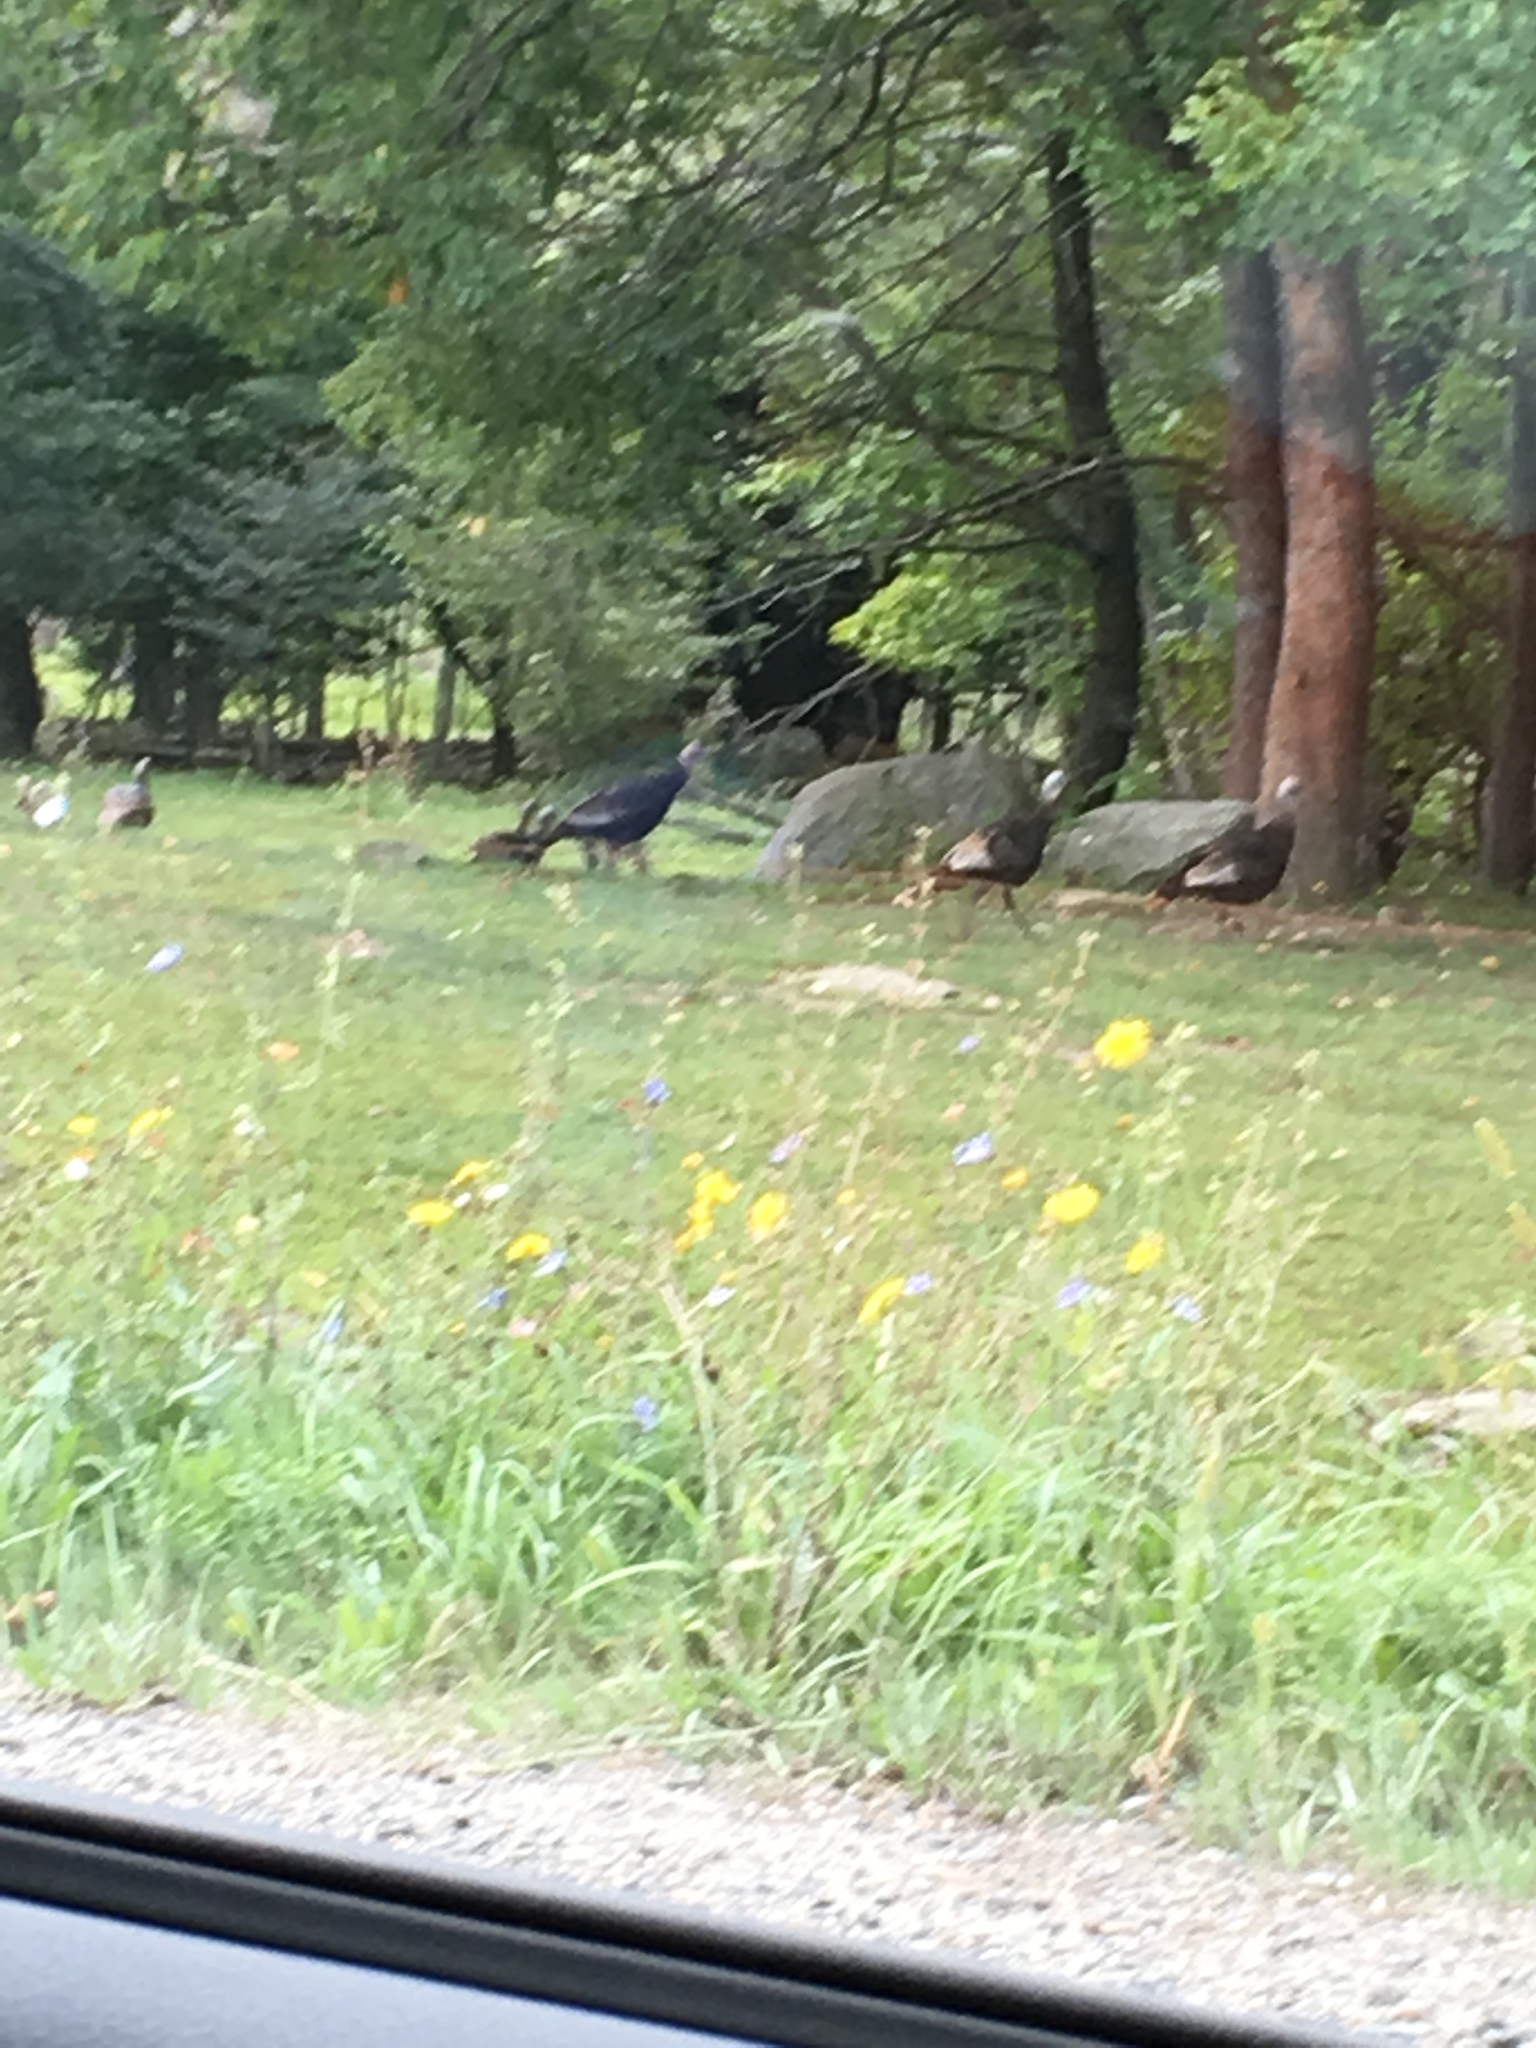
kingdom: Animalia
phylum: Chordata
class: Aves
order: Galliformes
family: Phasianidae
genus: Meleagris
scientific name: Meleagris gallopavo
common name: Wild turkey
